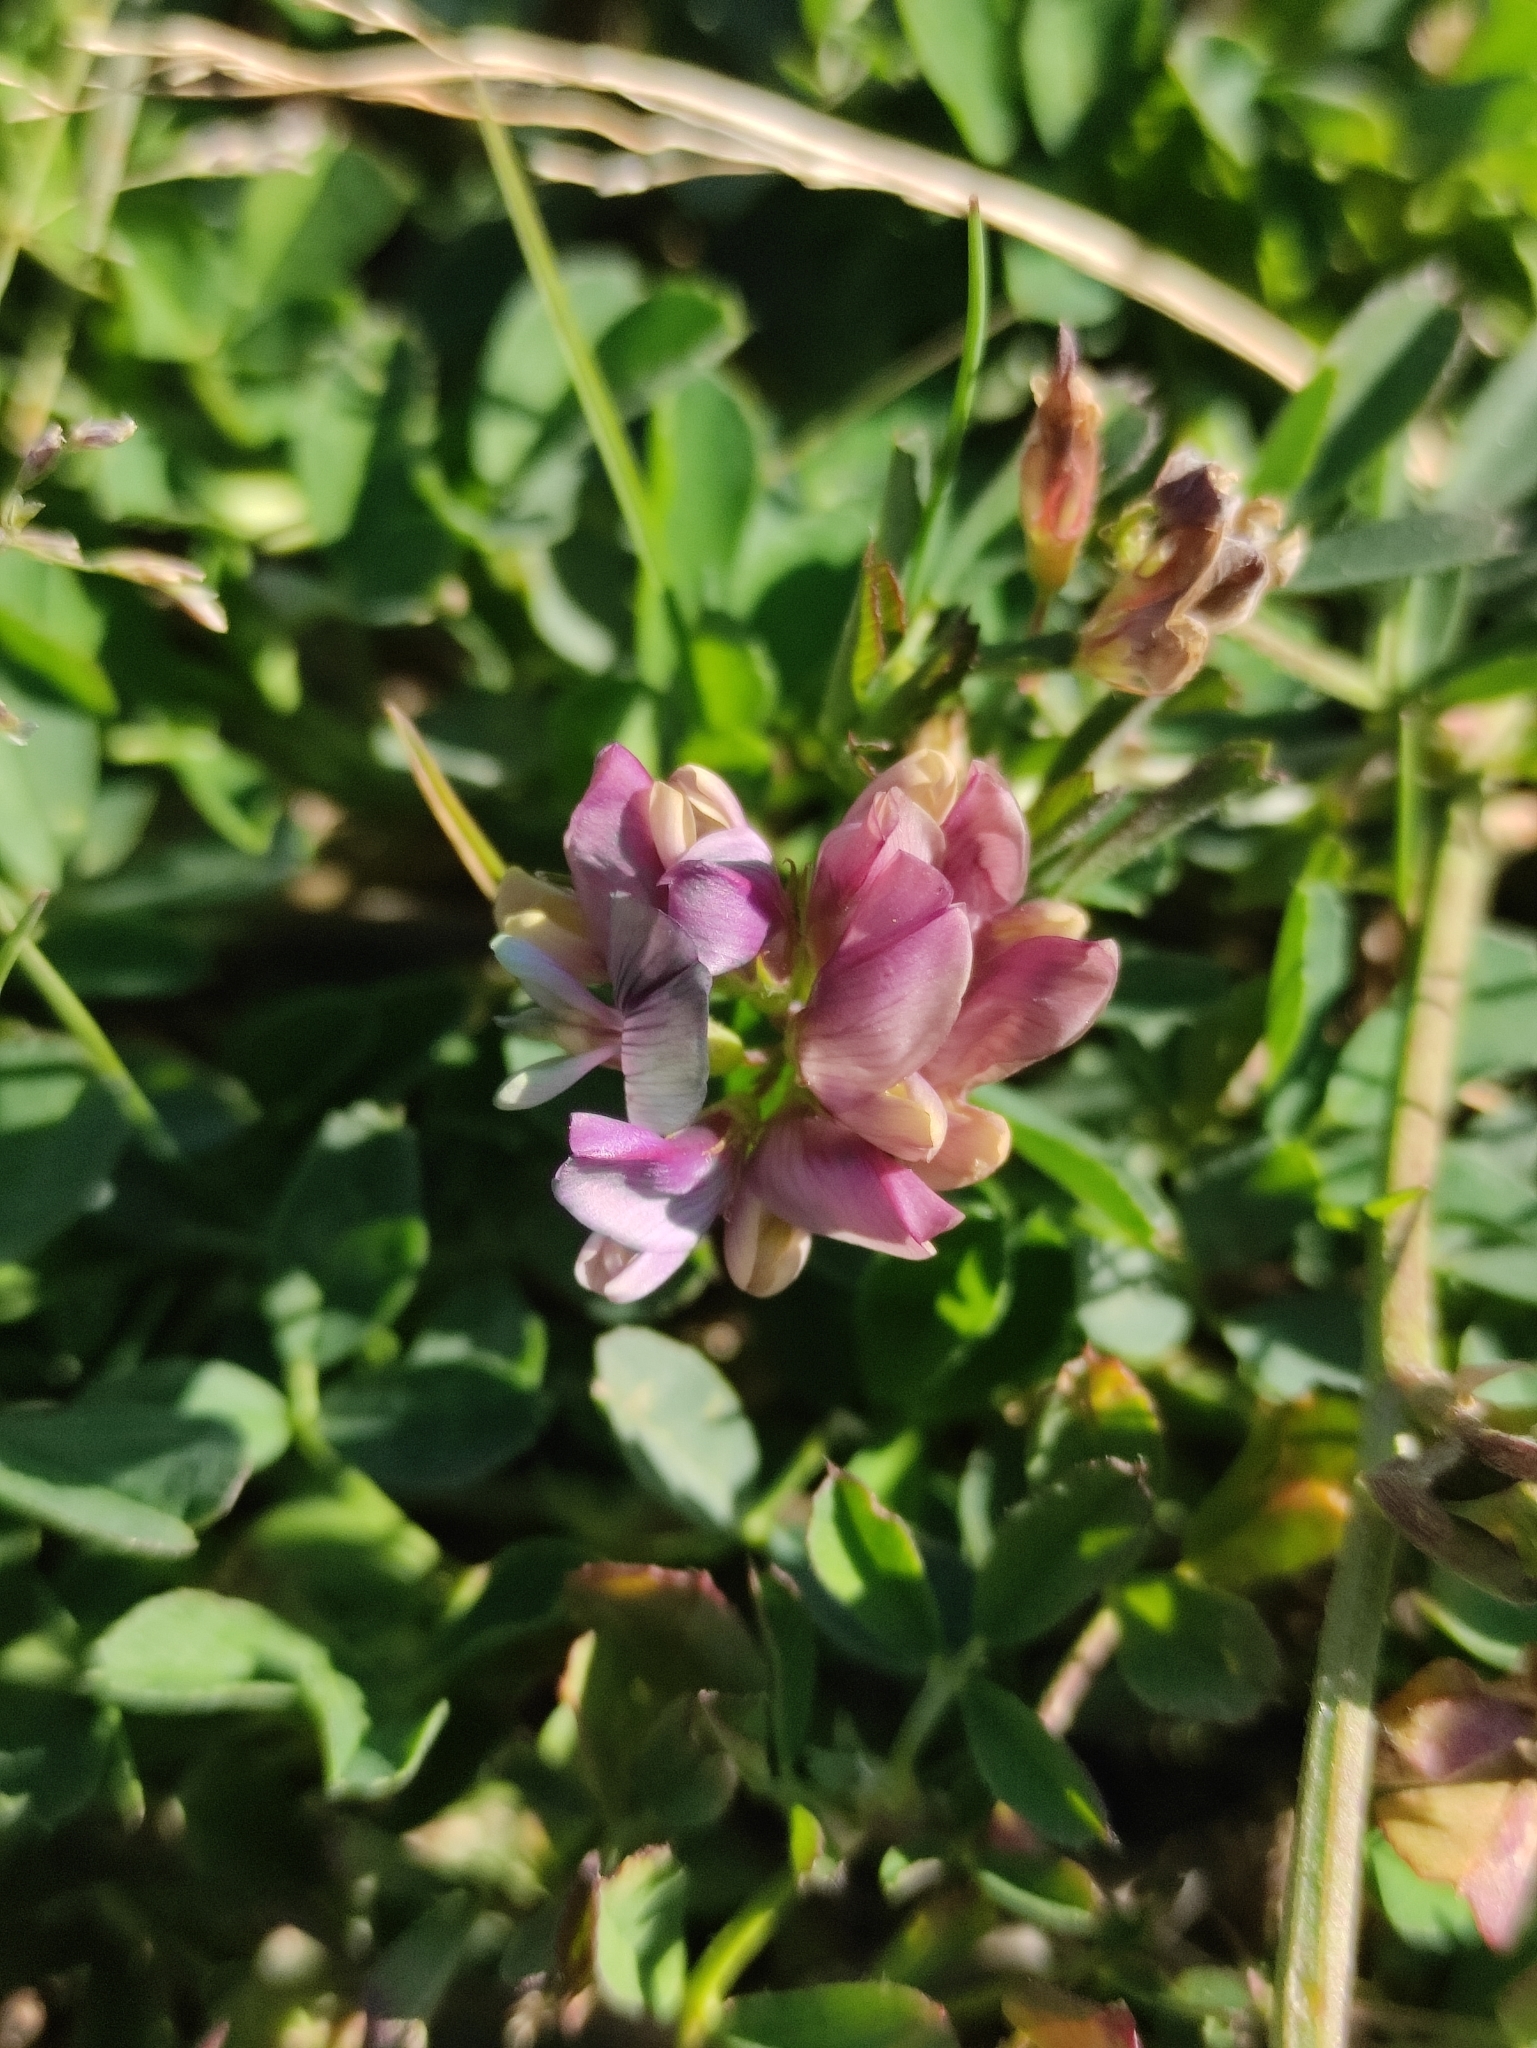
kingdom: Plantae
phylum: Tracheophyta
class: Magnoliopsida
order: Fabales
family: Fabaceae
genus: Medicago
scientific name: Medicago varia
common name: Sand lucerne
